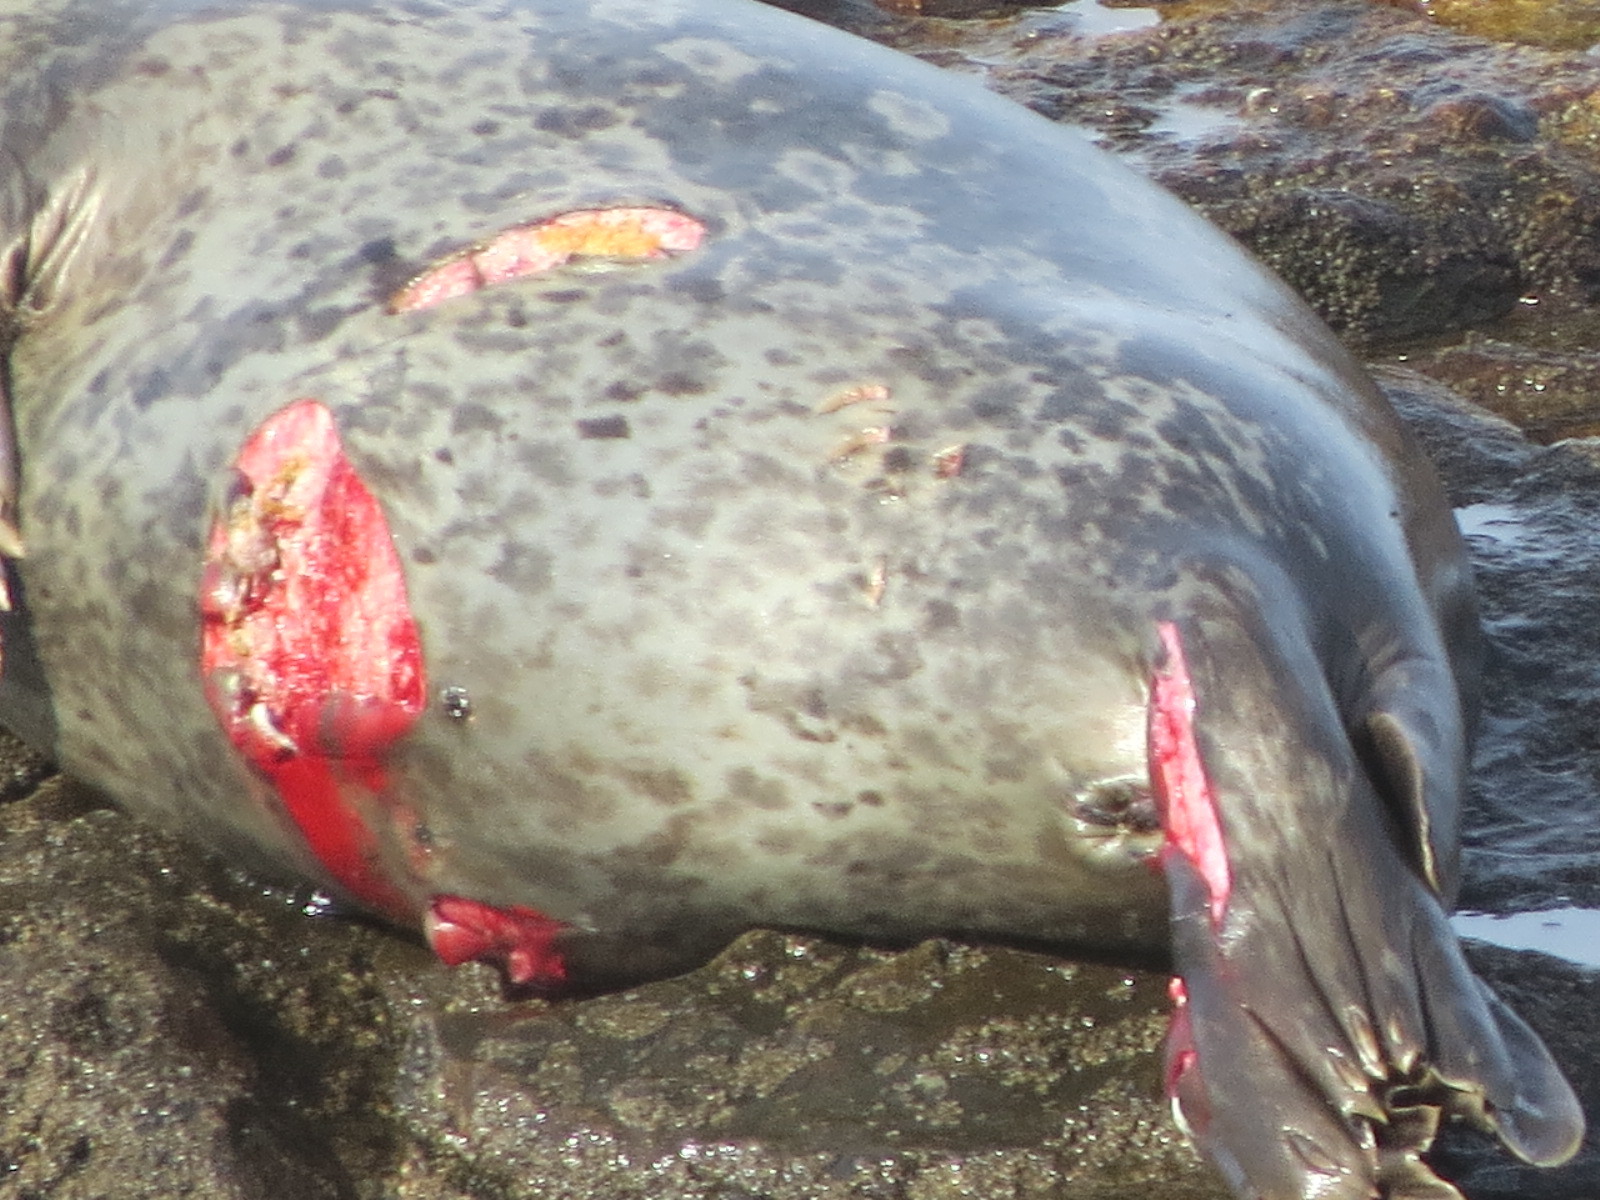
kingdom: Animalia
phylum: Chordata
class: Elasmobranchii
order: Lamniformes
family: Lamnidae
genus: Carcharodon
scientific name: Carcharodon carcharias
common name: Great white shark
